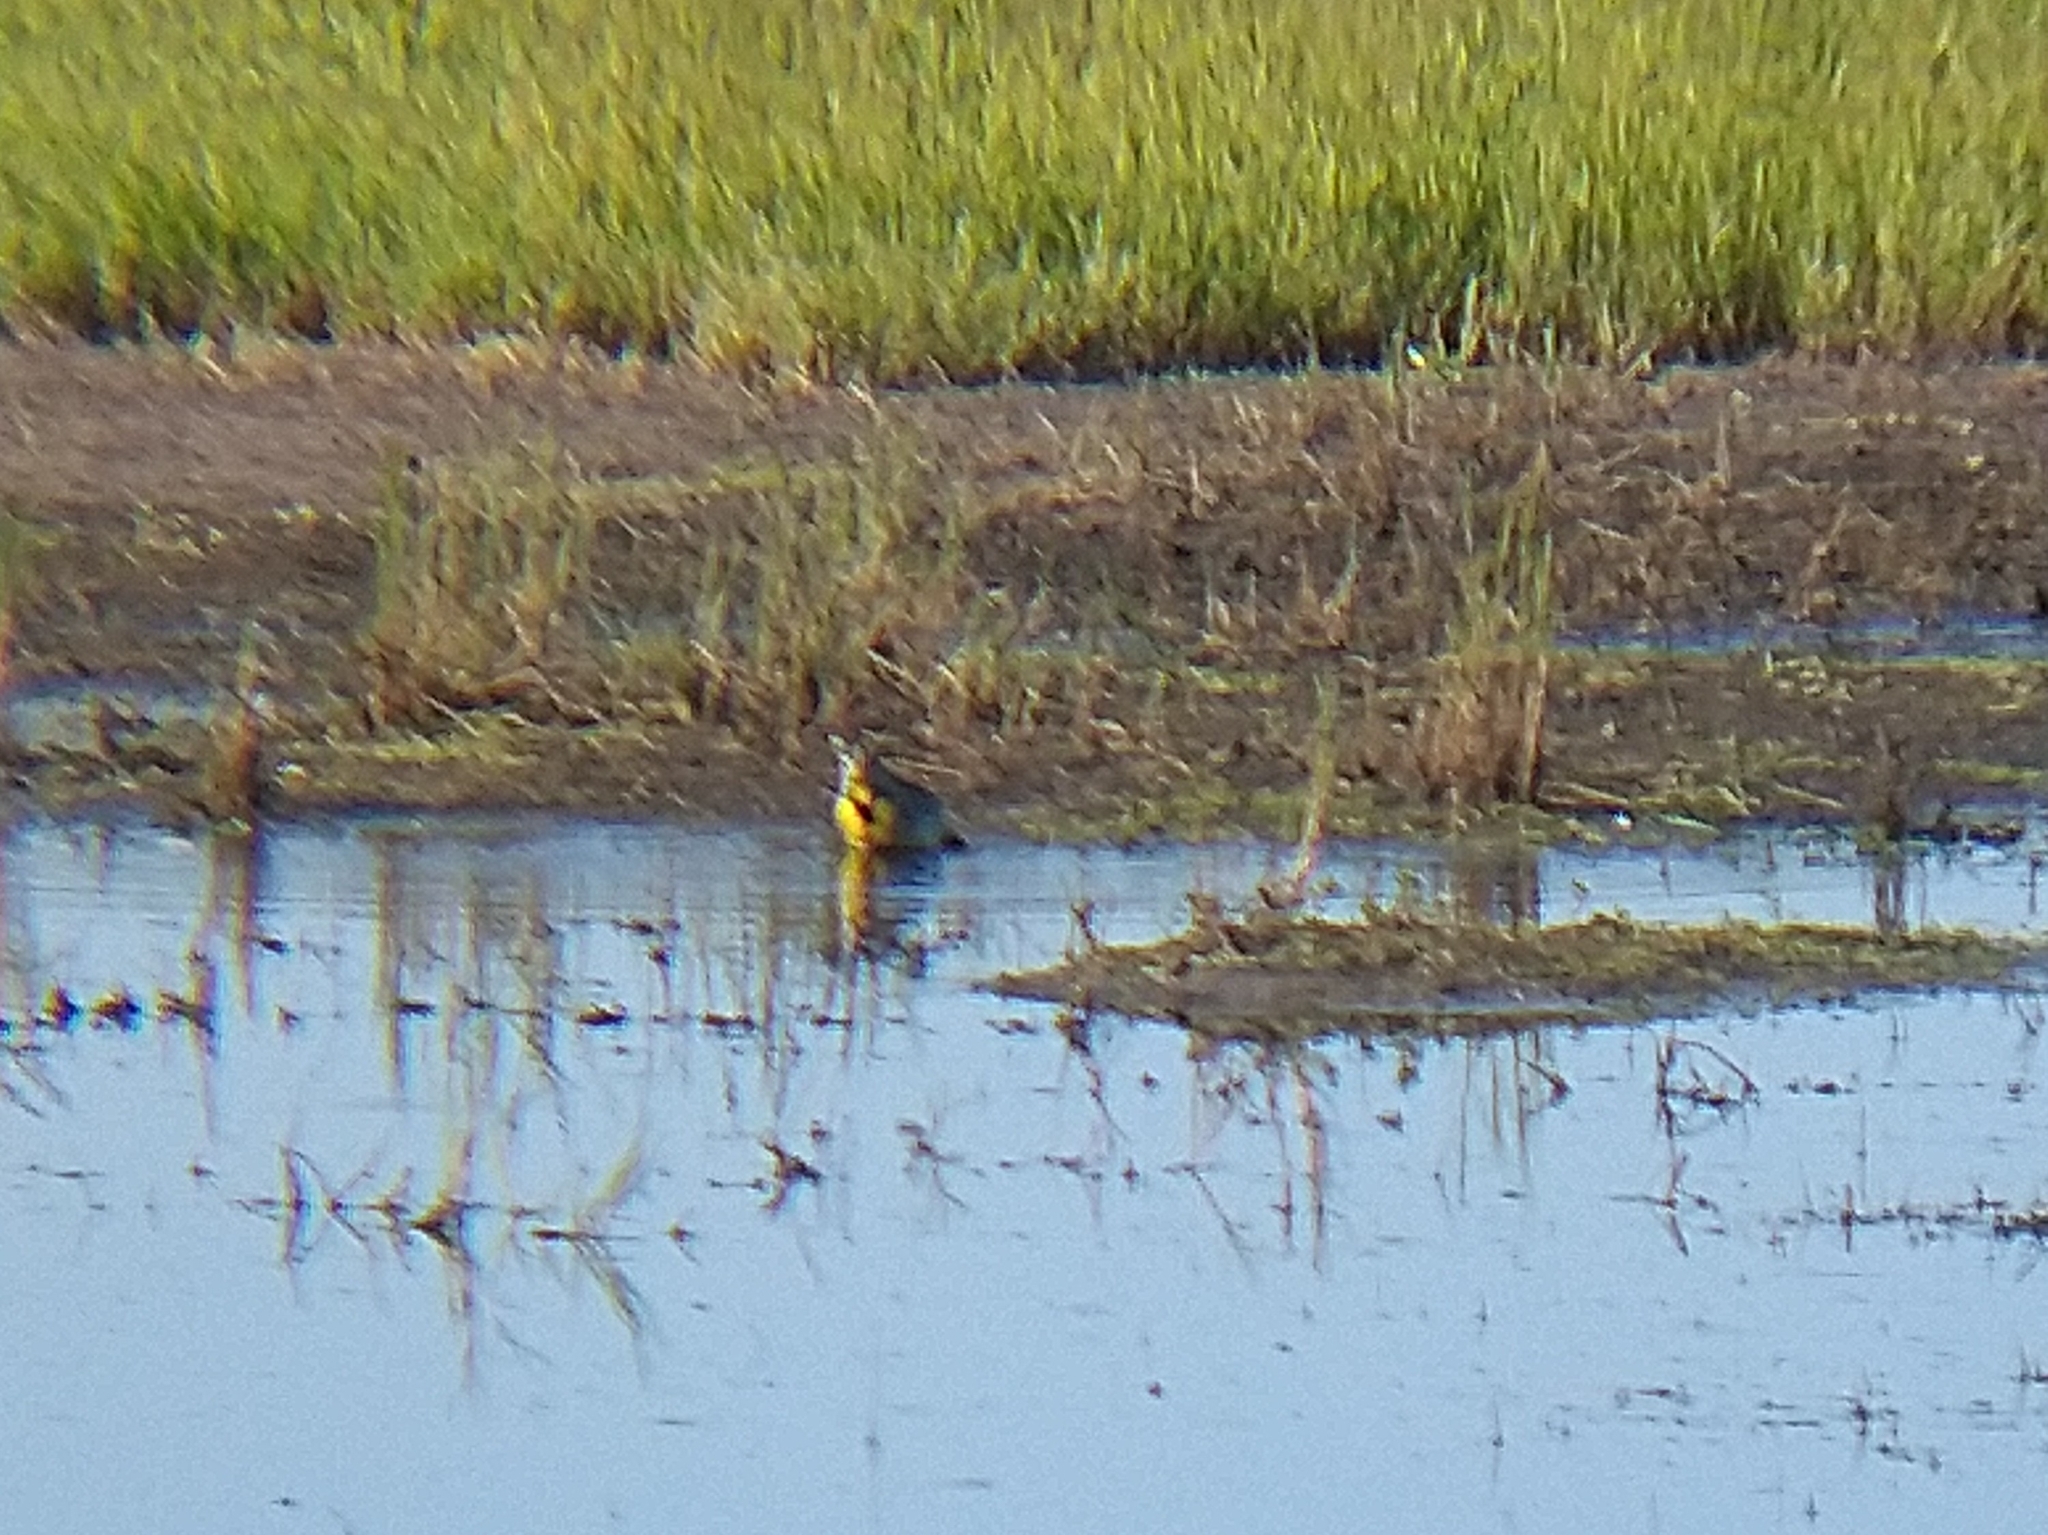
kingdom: Animalia
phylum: Chordata
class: Aves
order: Passeriformes
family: Icteridae
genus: Sturnella
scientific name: Sturnella neglecta
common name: Western meadowlark
